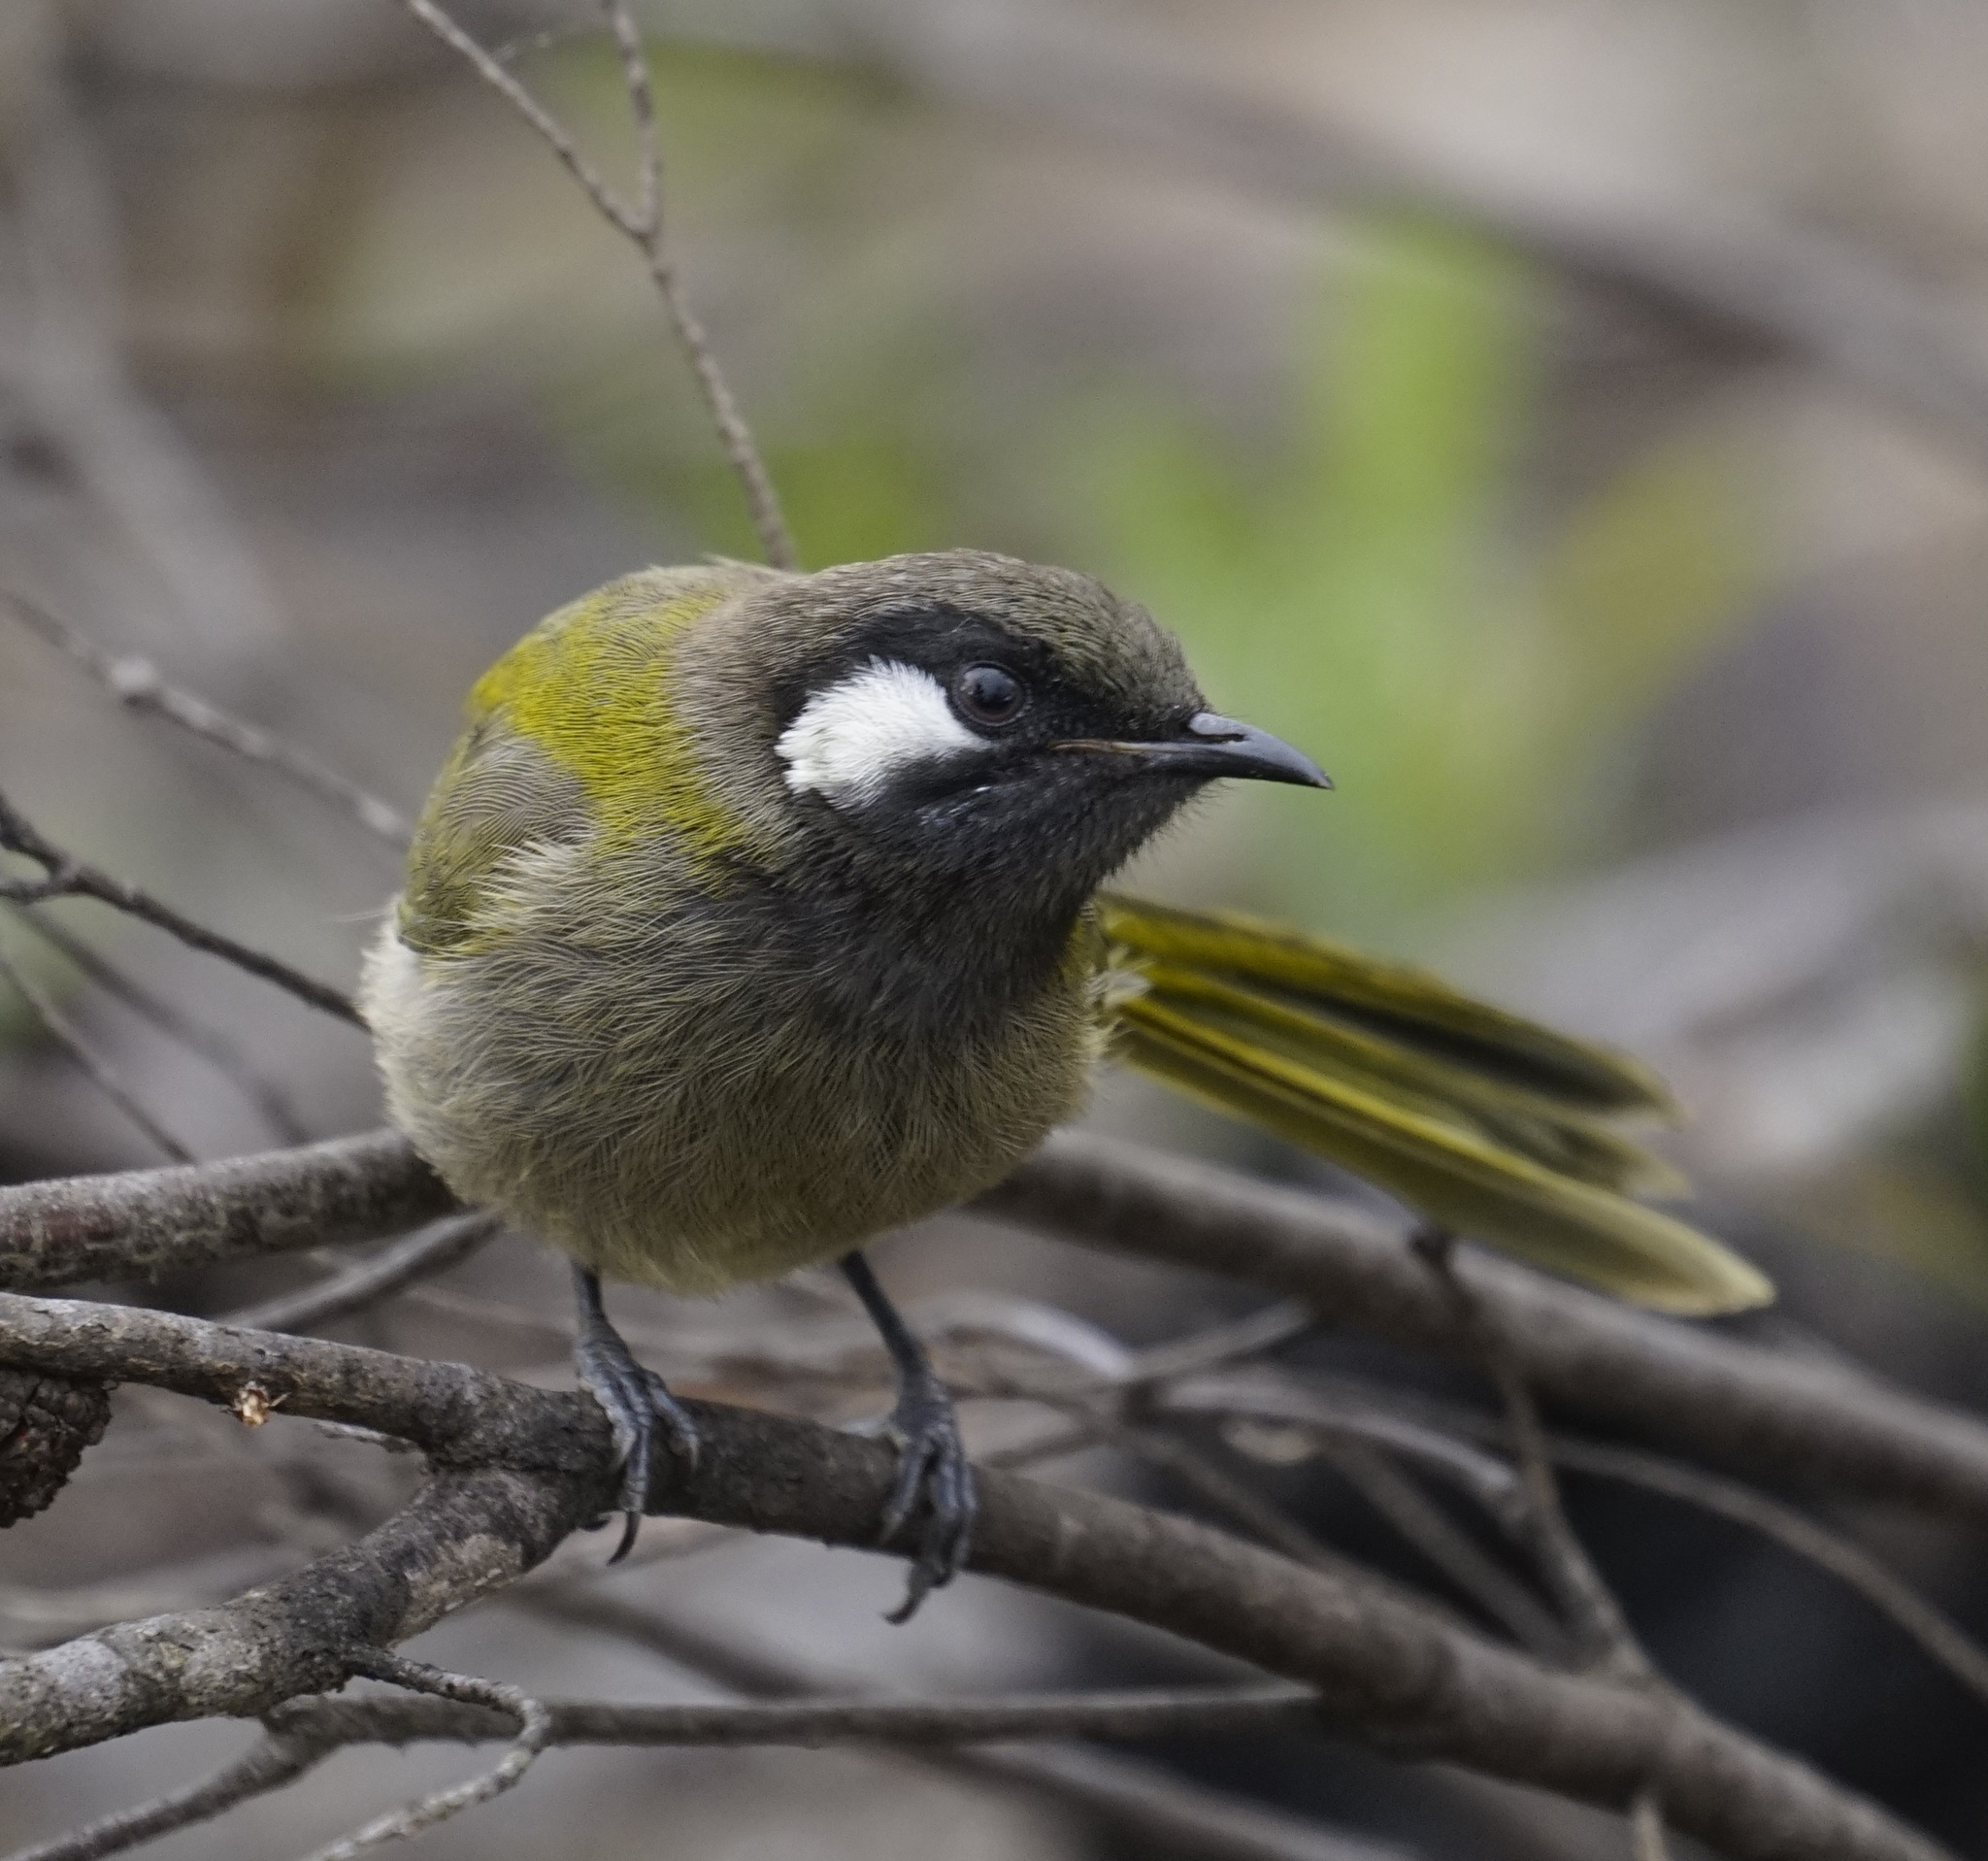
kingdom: Animalia
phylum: Chordata
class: Aves
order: Passeriformes
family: Meliphagidae
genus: Nesoptilotis
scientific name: Nesoptilotis leucotis
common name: White-eared honeyeater
